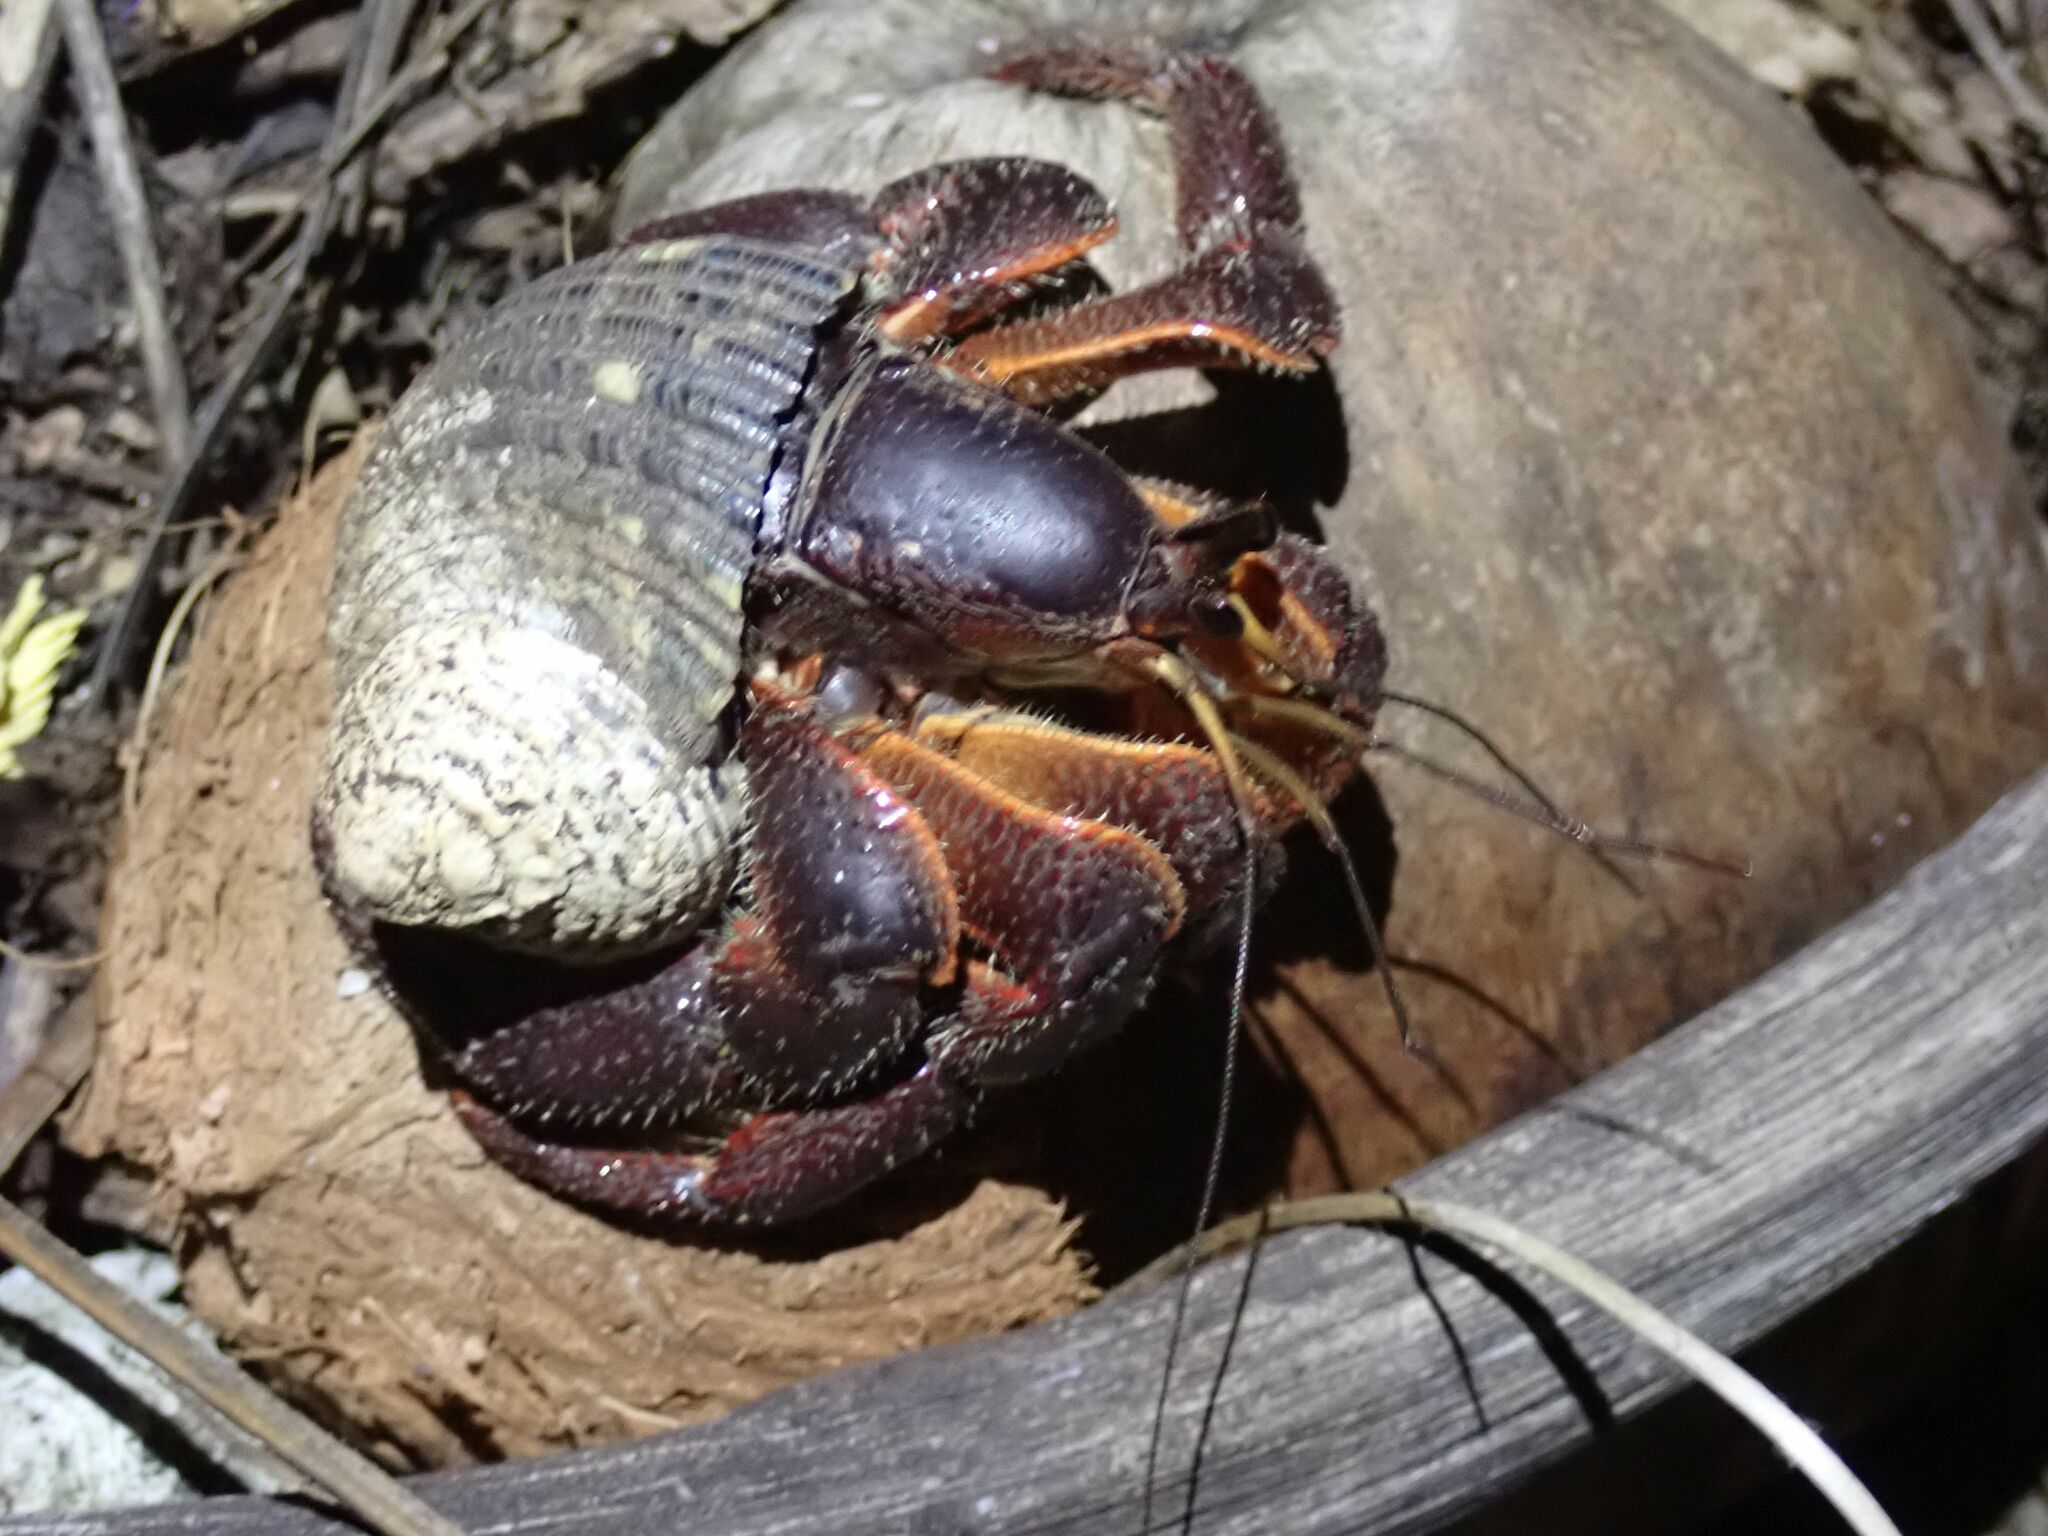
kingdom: Animalia
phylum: Arthropoda
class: Malacostraca
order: Decapoda
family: Coenobitidae
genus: Coenobita
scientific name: Coenobita spinosus
